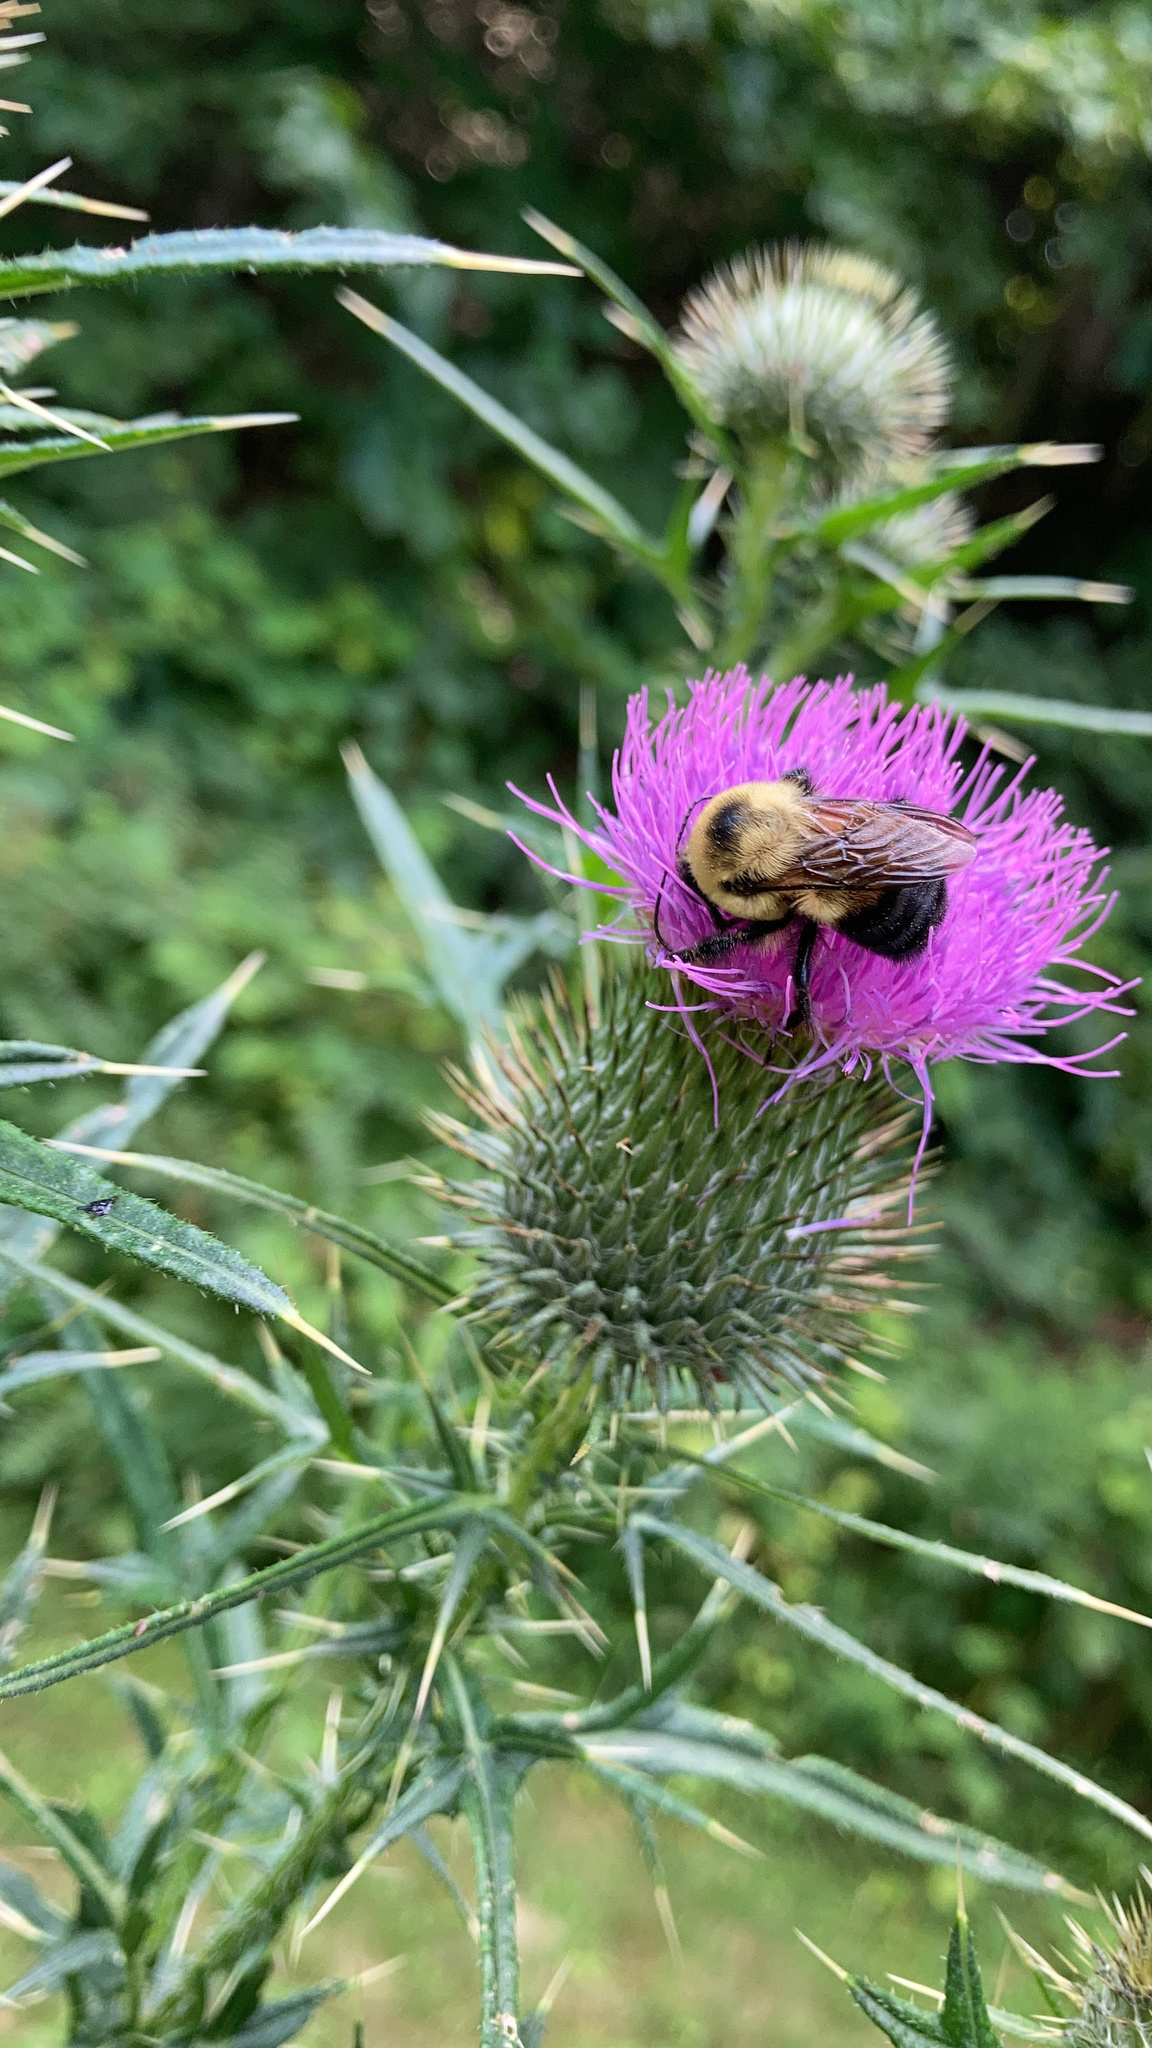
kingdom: Animalia
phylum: Arthropoda
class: Insecta
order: Hymenoptera
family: Apidae
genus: Bombus
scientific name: Bombus griseocollis
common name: Brown-belted bumble bee
